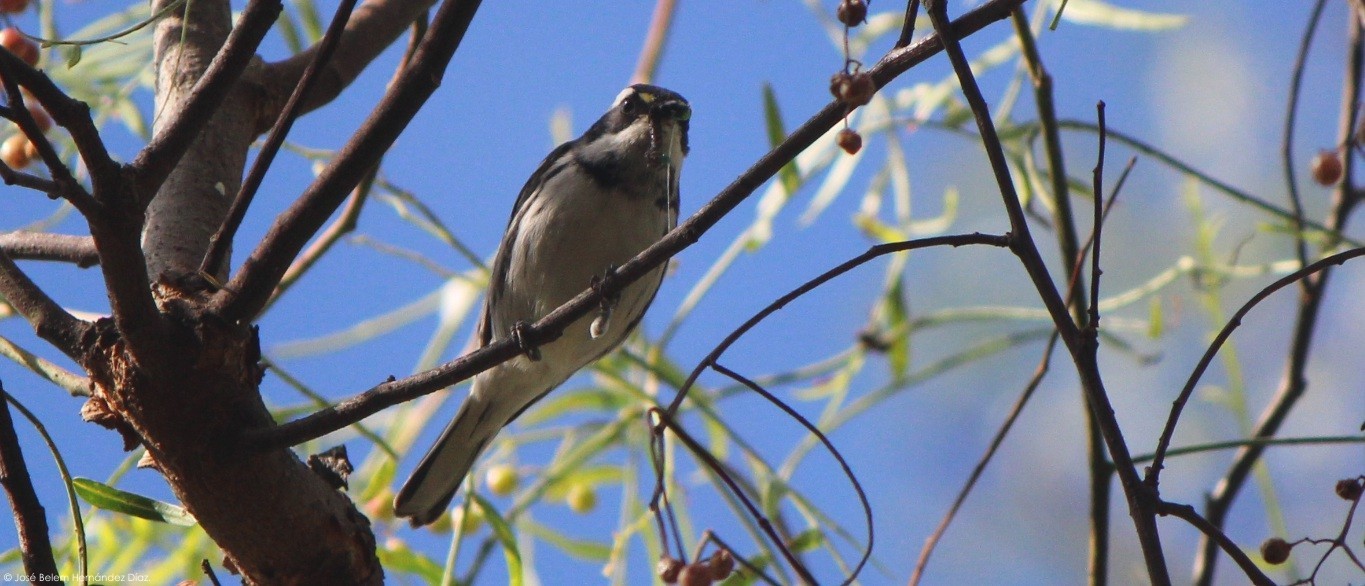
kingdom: Animalia
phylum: Chordata
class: Aves
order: Passeriformes
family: Parulidae
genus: Setophaga
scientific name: Setophaga nigrescens
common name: Black-throated gray warbler
